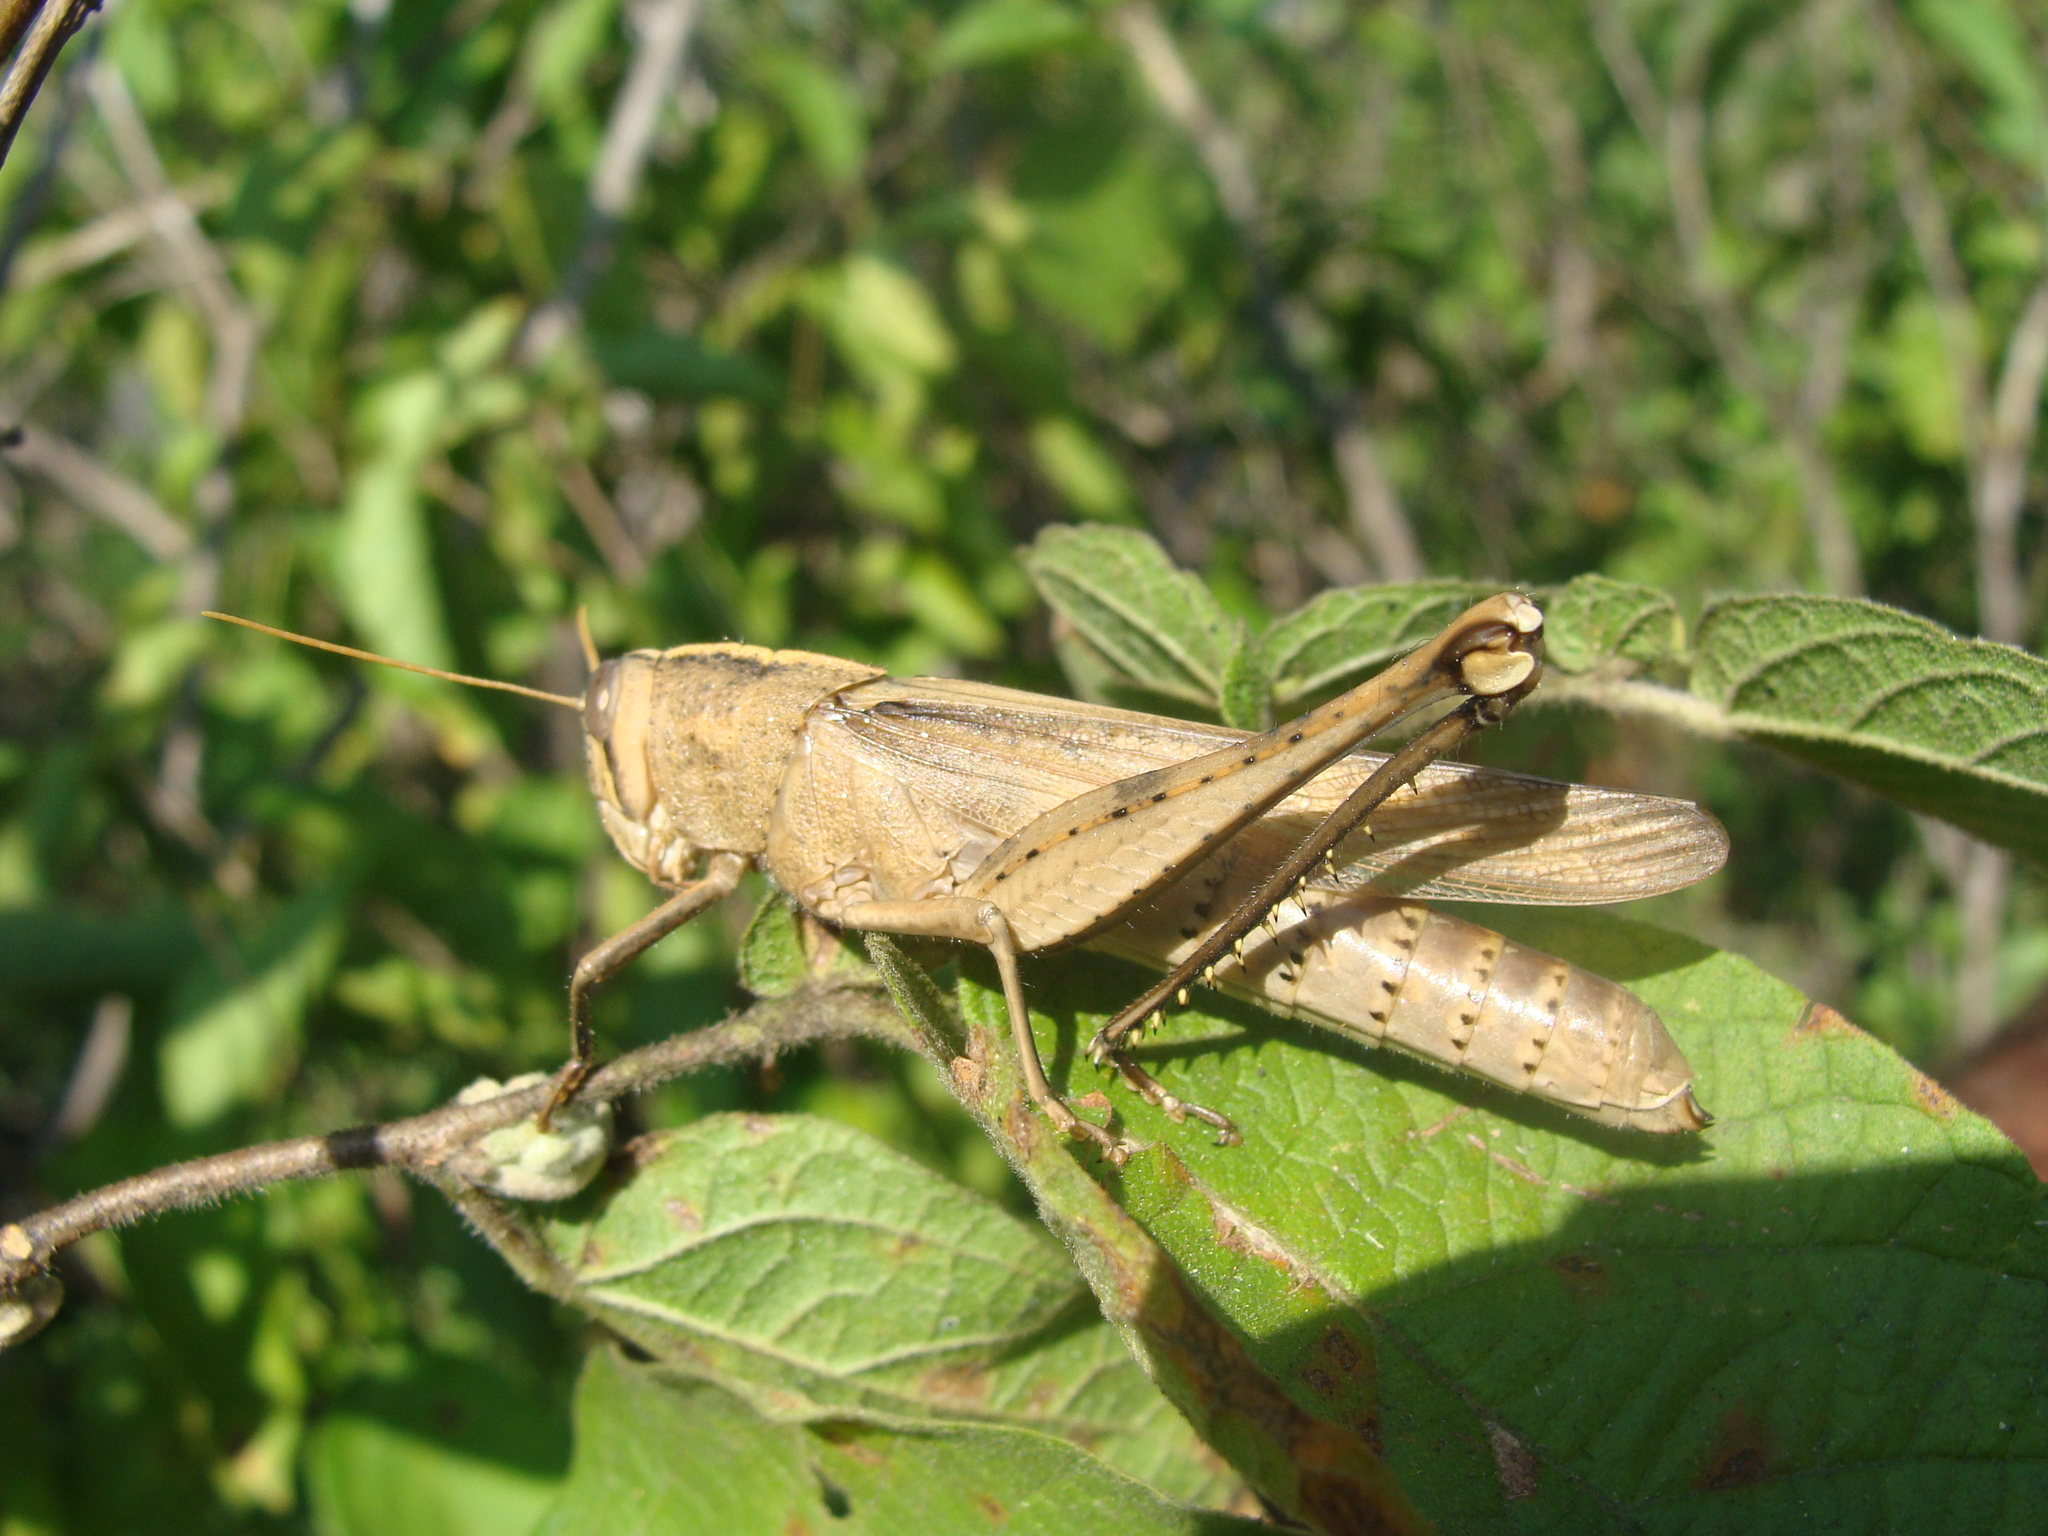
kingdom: Animalia
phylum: Arthropoda
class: Insecta
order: Orthoptera
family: Acrididae
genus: Schistocerca
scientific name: Schistocerca camerata
